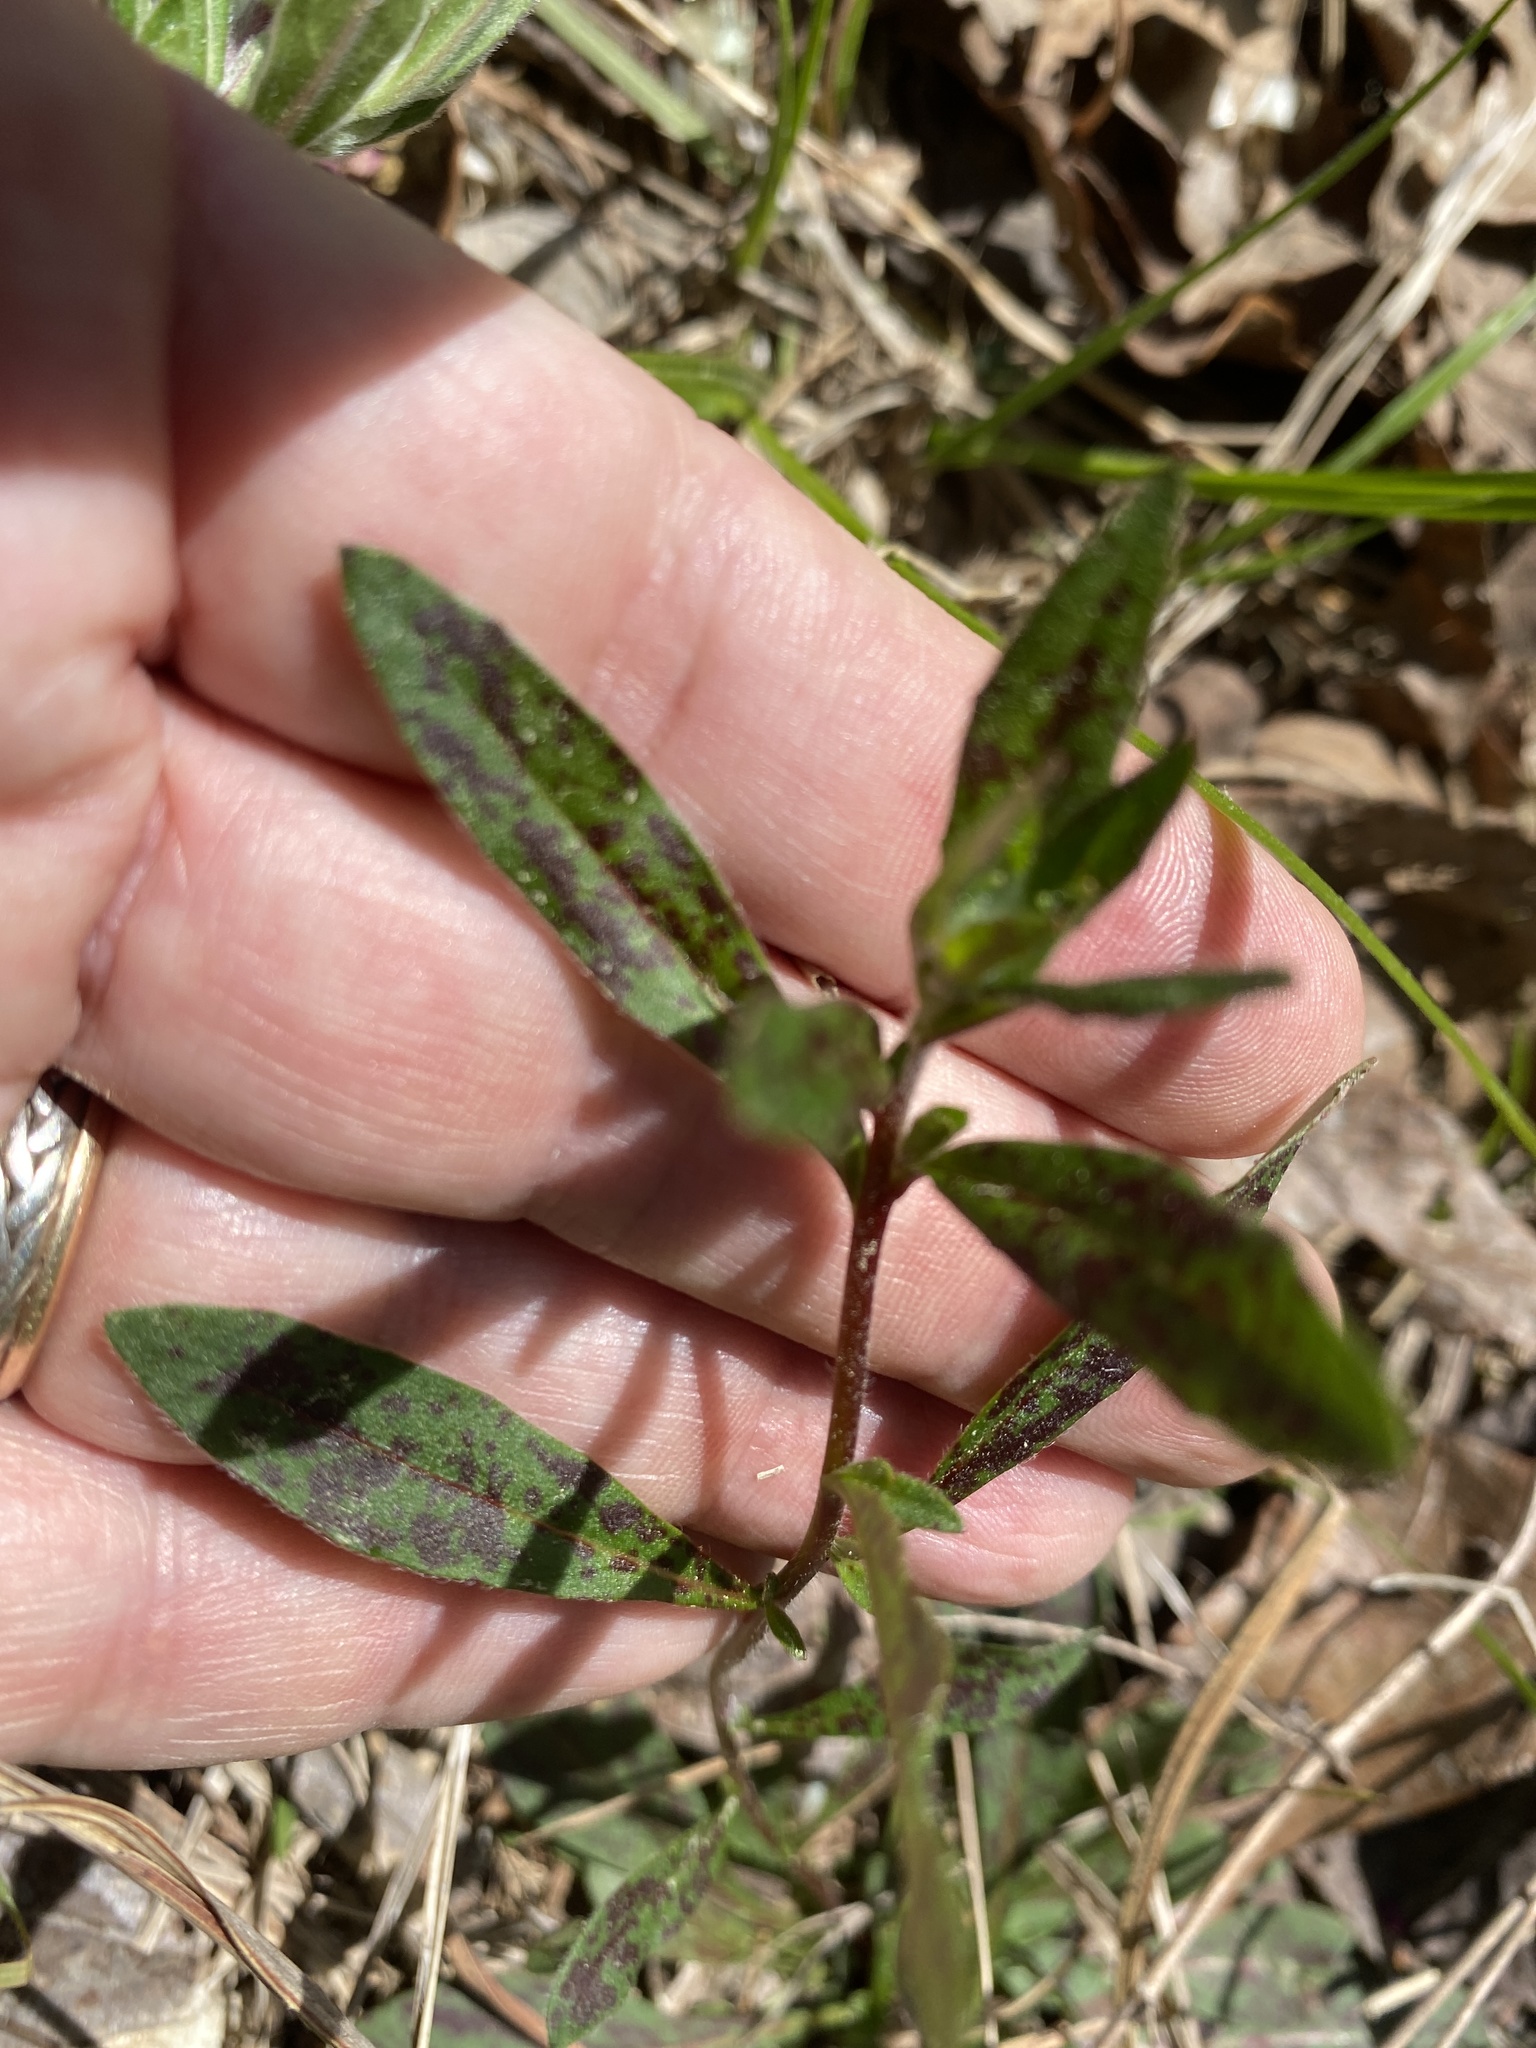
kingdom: Plantae
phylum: Tracheophyta
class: Magnoliopsida
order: Myrtales
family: Onagraceae
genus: Oenothera
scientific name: Oenothera fruticosa
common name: Southern sundrops
